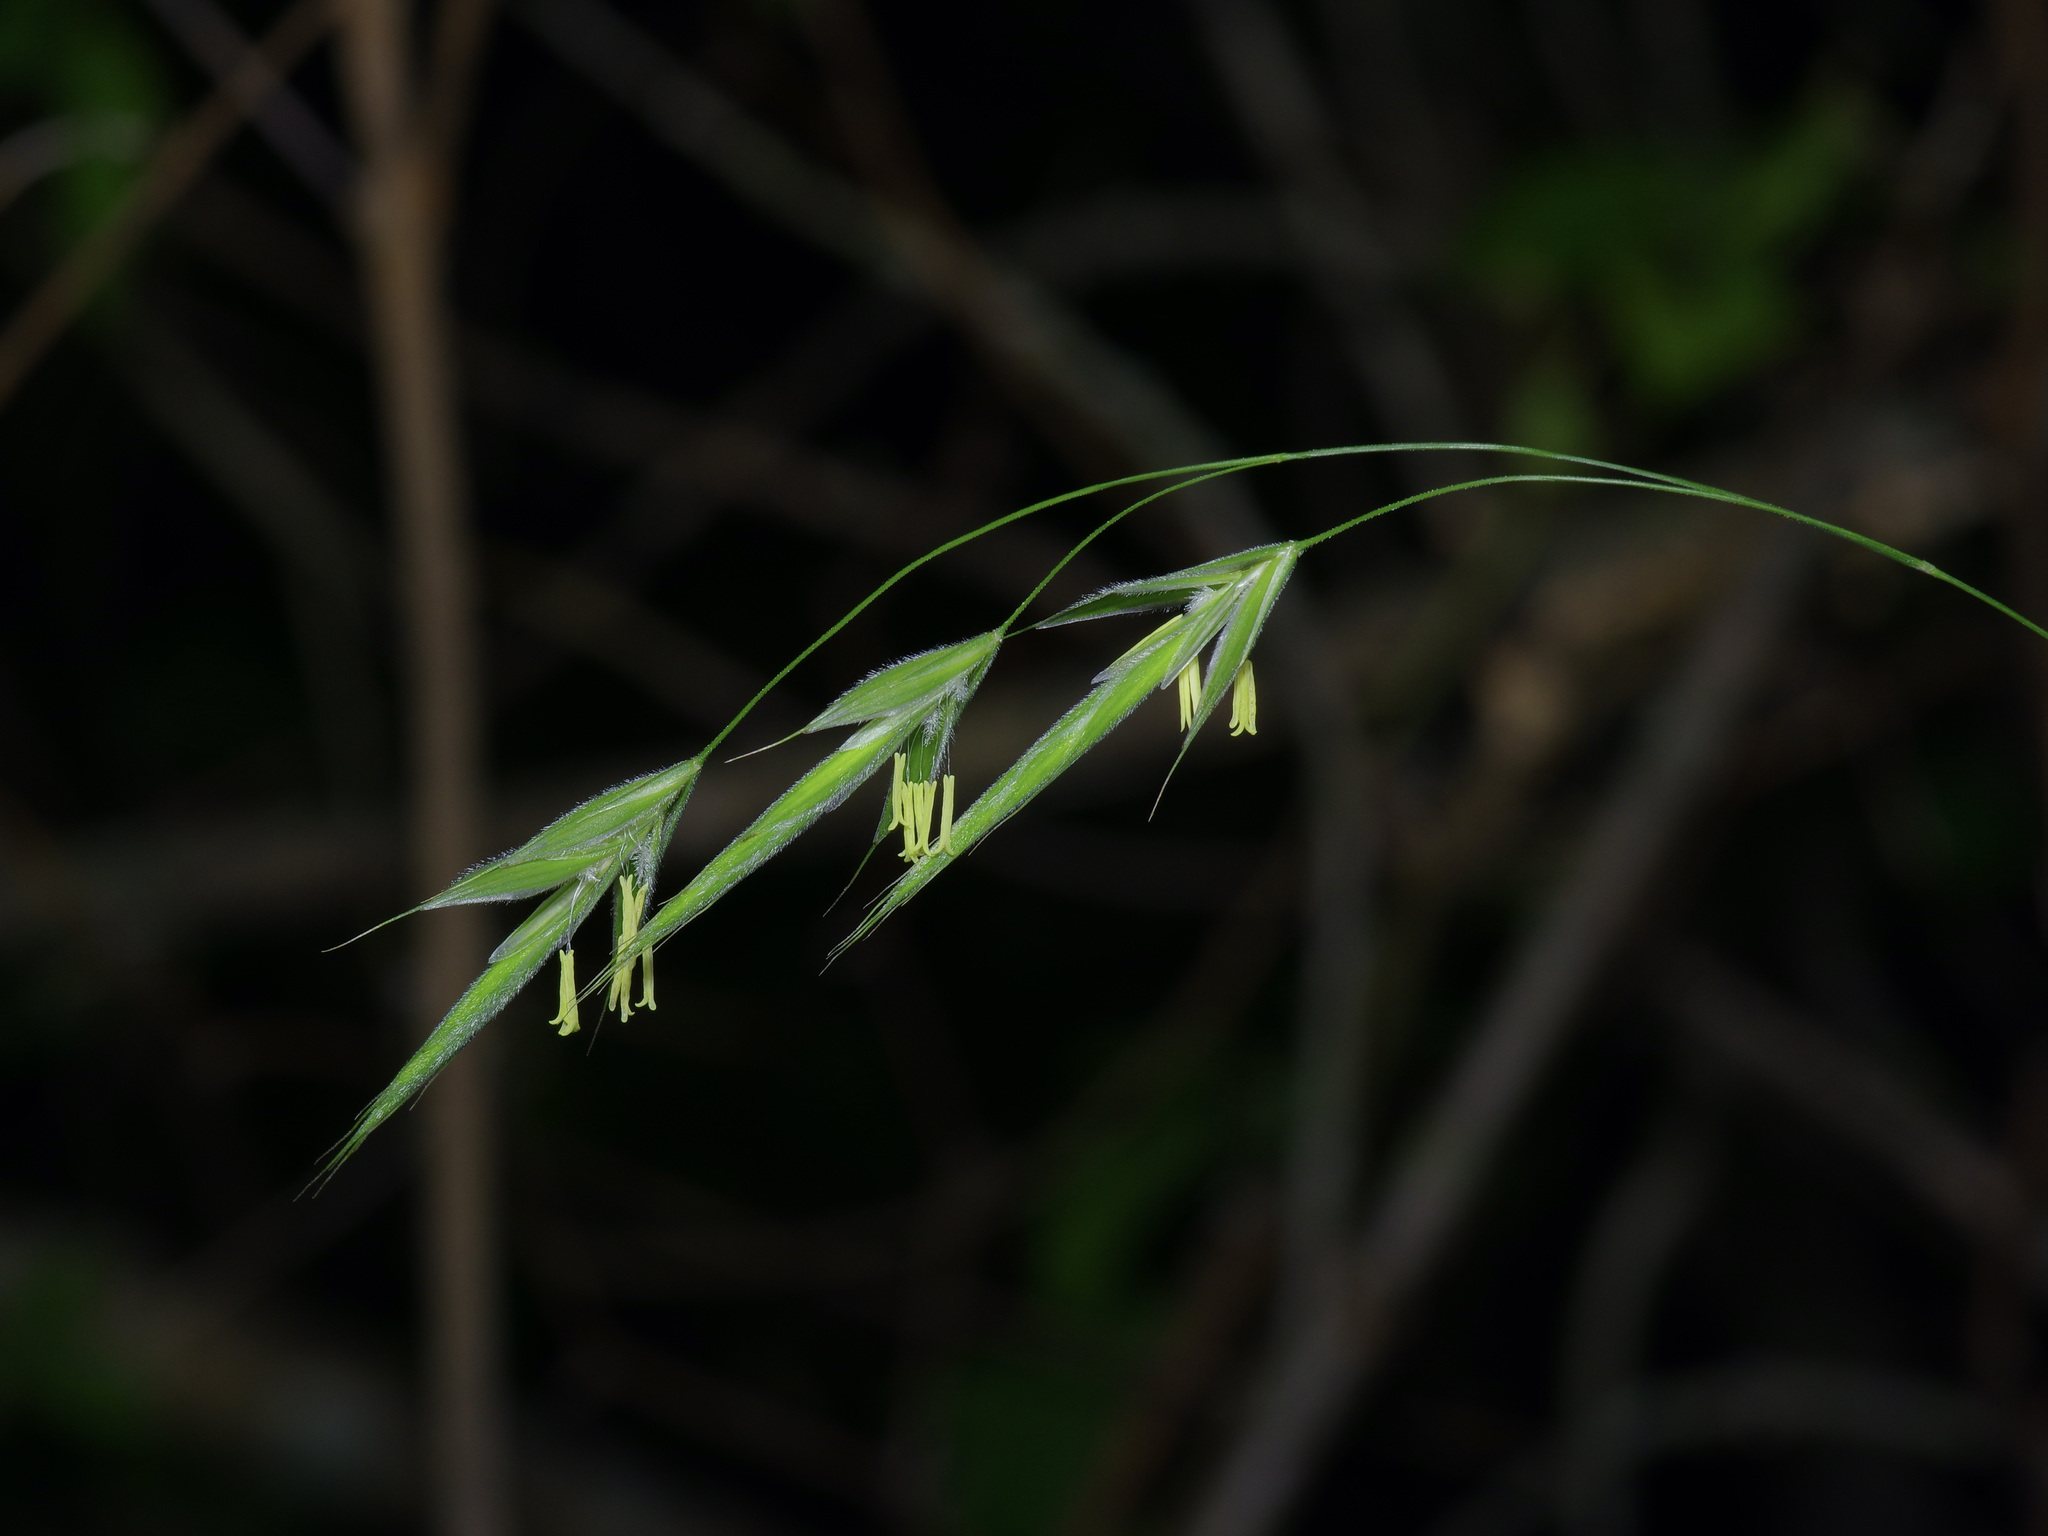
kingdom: Plantae
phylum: Tracheophyta
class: Liliopsida
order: Poales
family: Poaceae
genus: Bromus
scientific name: Bromus pubescens
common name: Hairy wood brome grass
